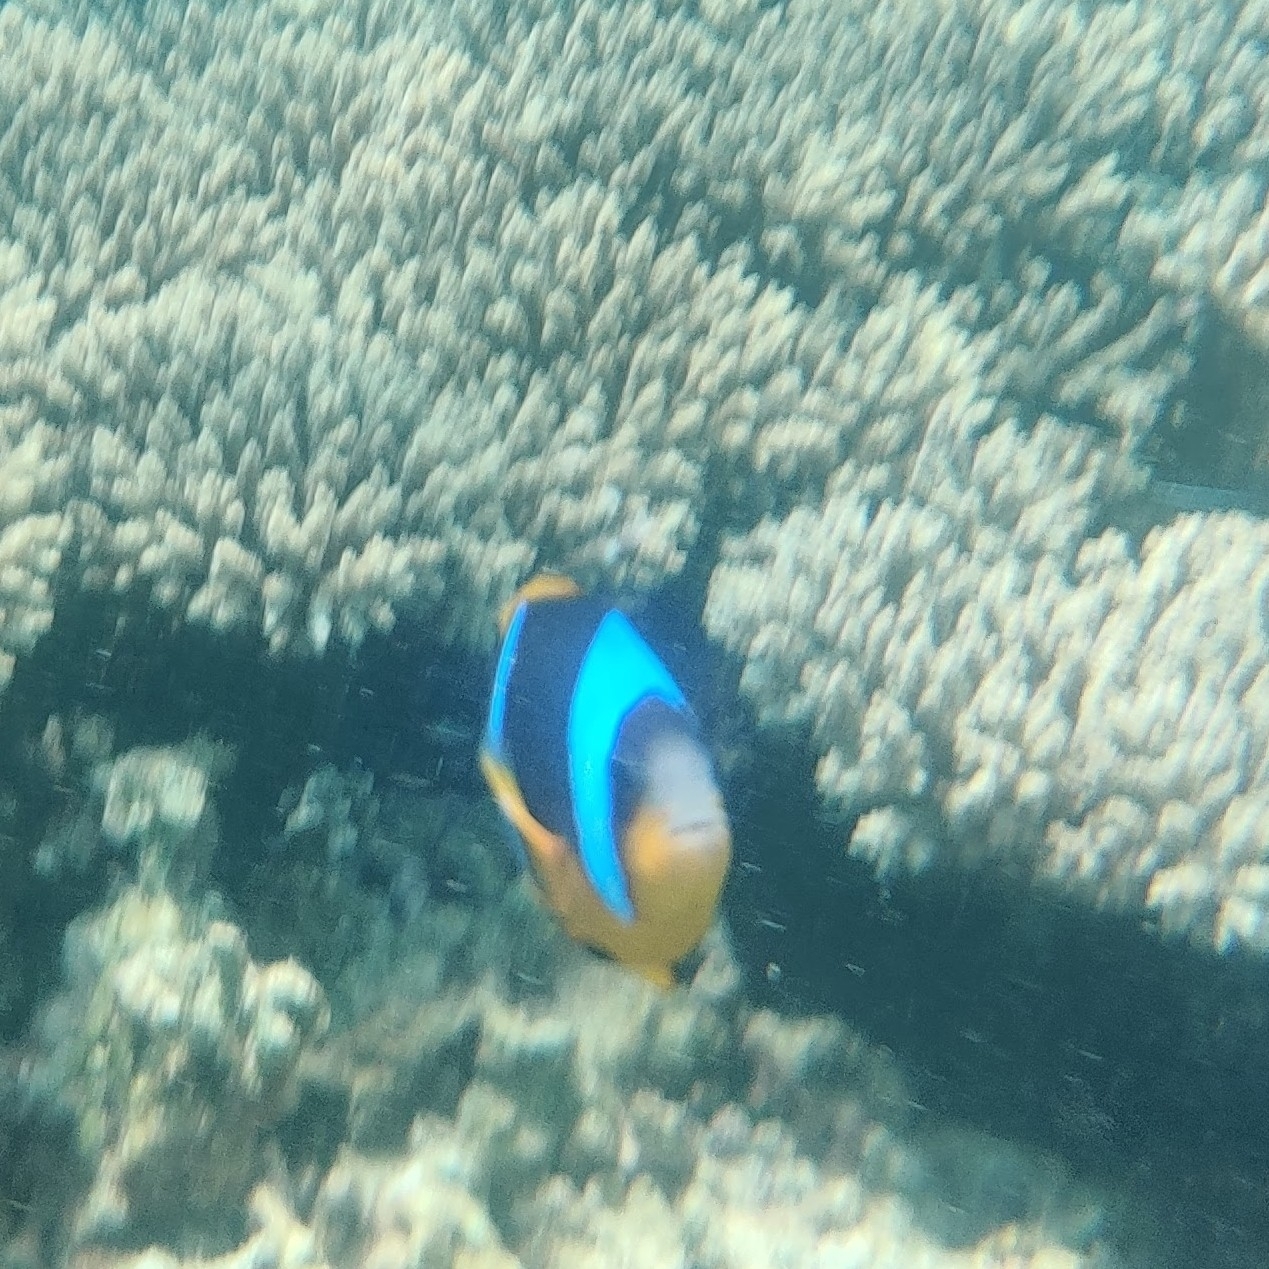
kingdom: Animalia
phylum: Chordata
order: Perciformes
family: Pomacentridae
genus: Amphiprion
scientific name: Amphiprion allardi
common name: Allard's anemonefish
